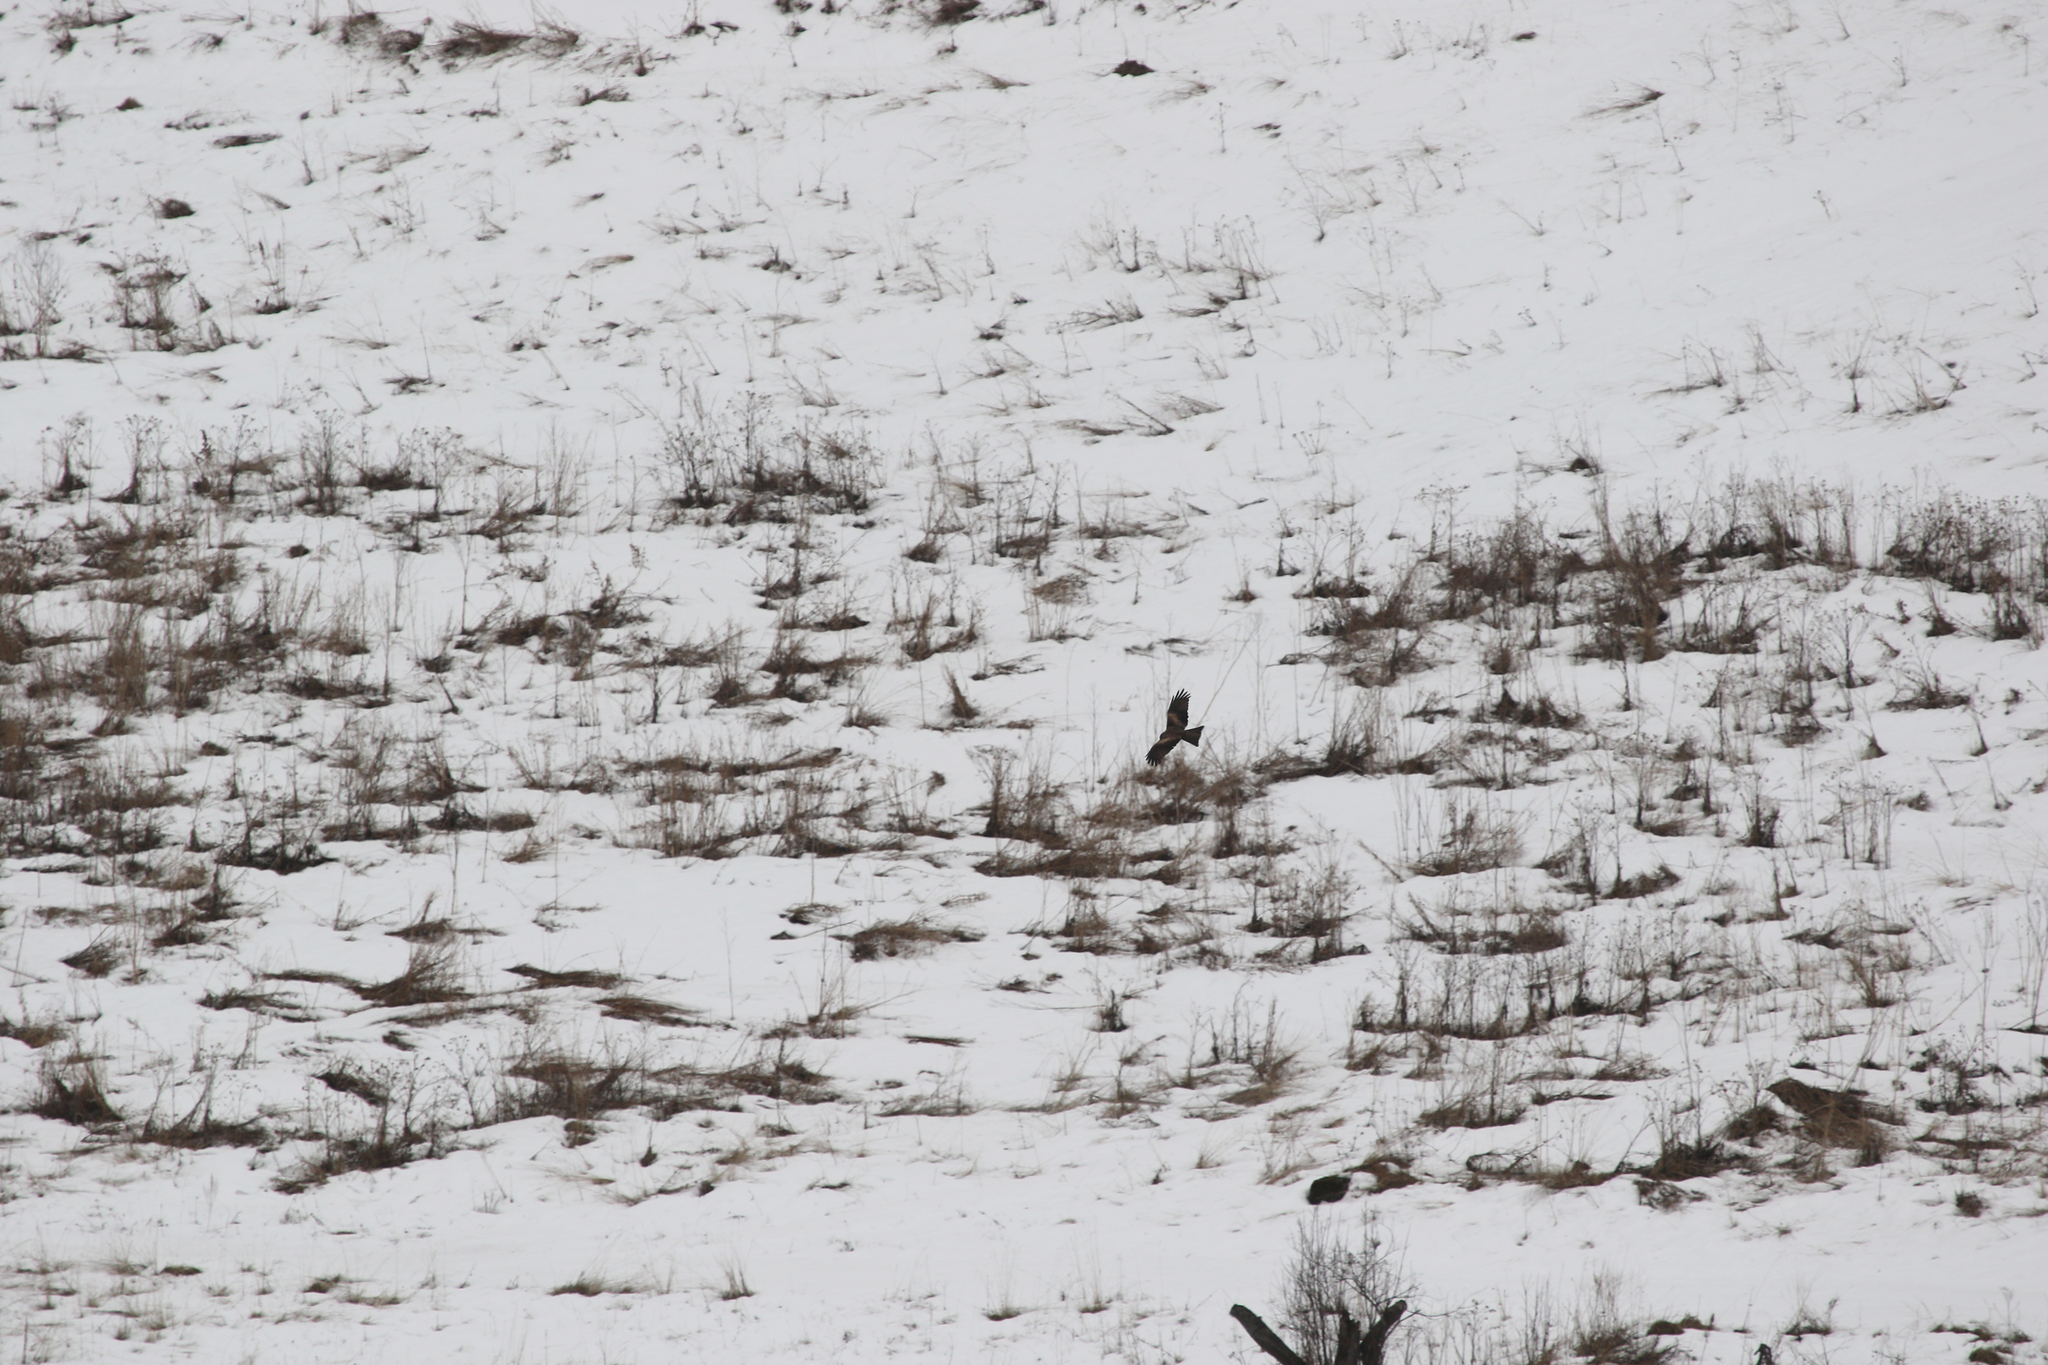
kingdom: Animalia
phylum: Chordata
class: Aves
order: Accipitriformes
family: Accipitridae
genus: Milvus
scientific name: Milvus migrans
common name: Black kite
